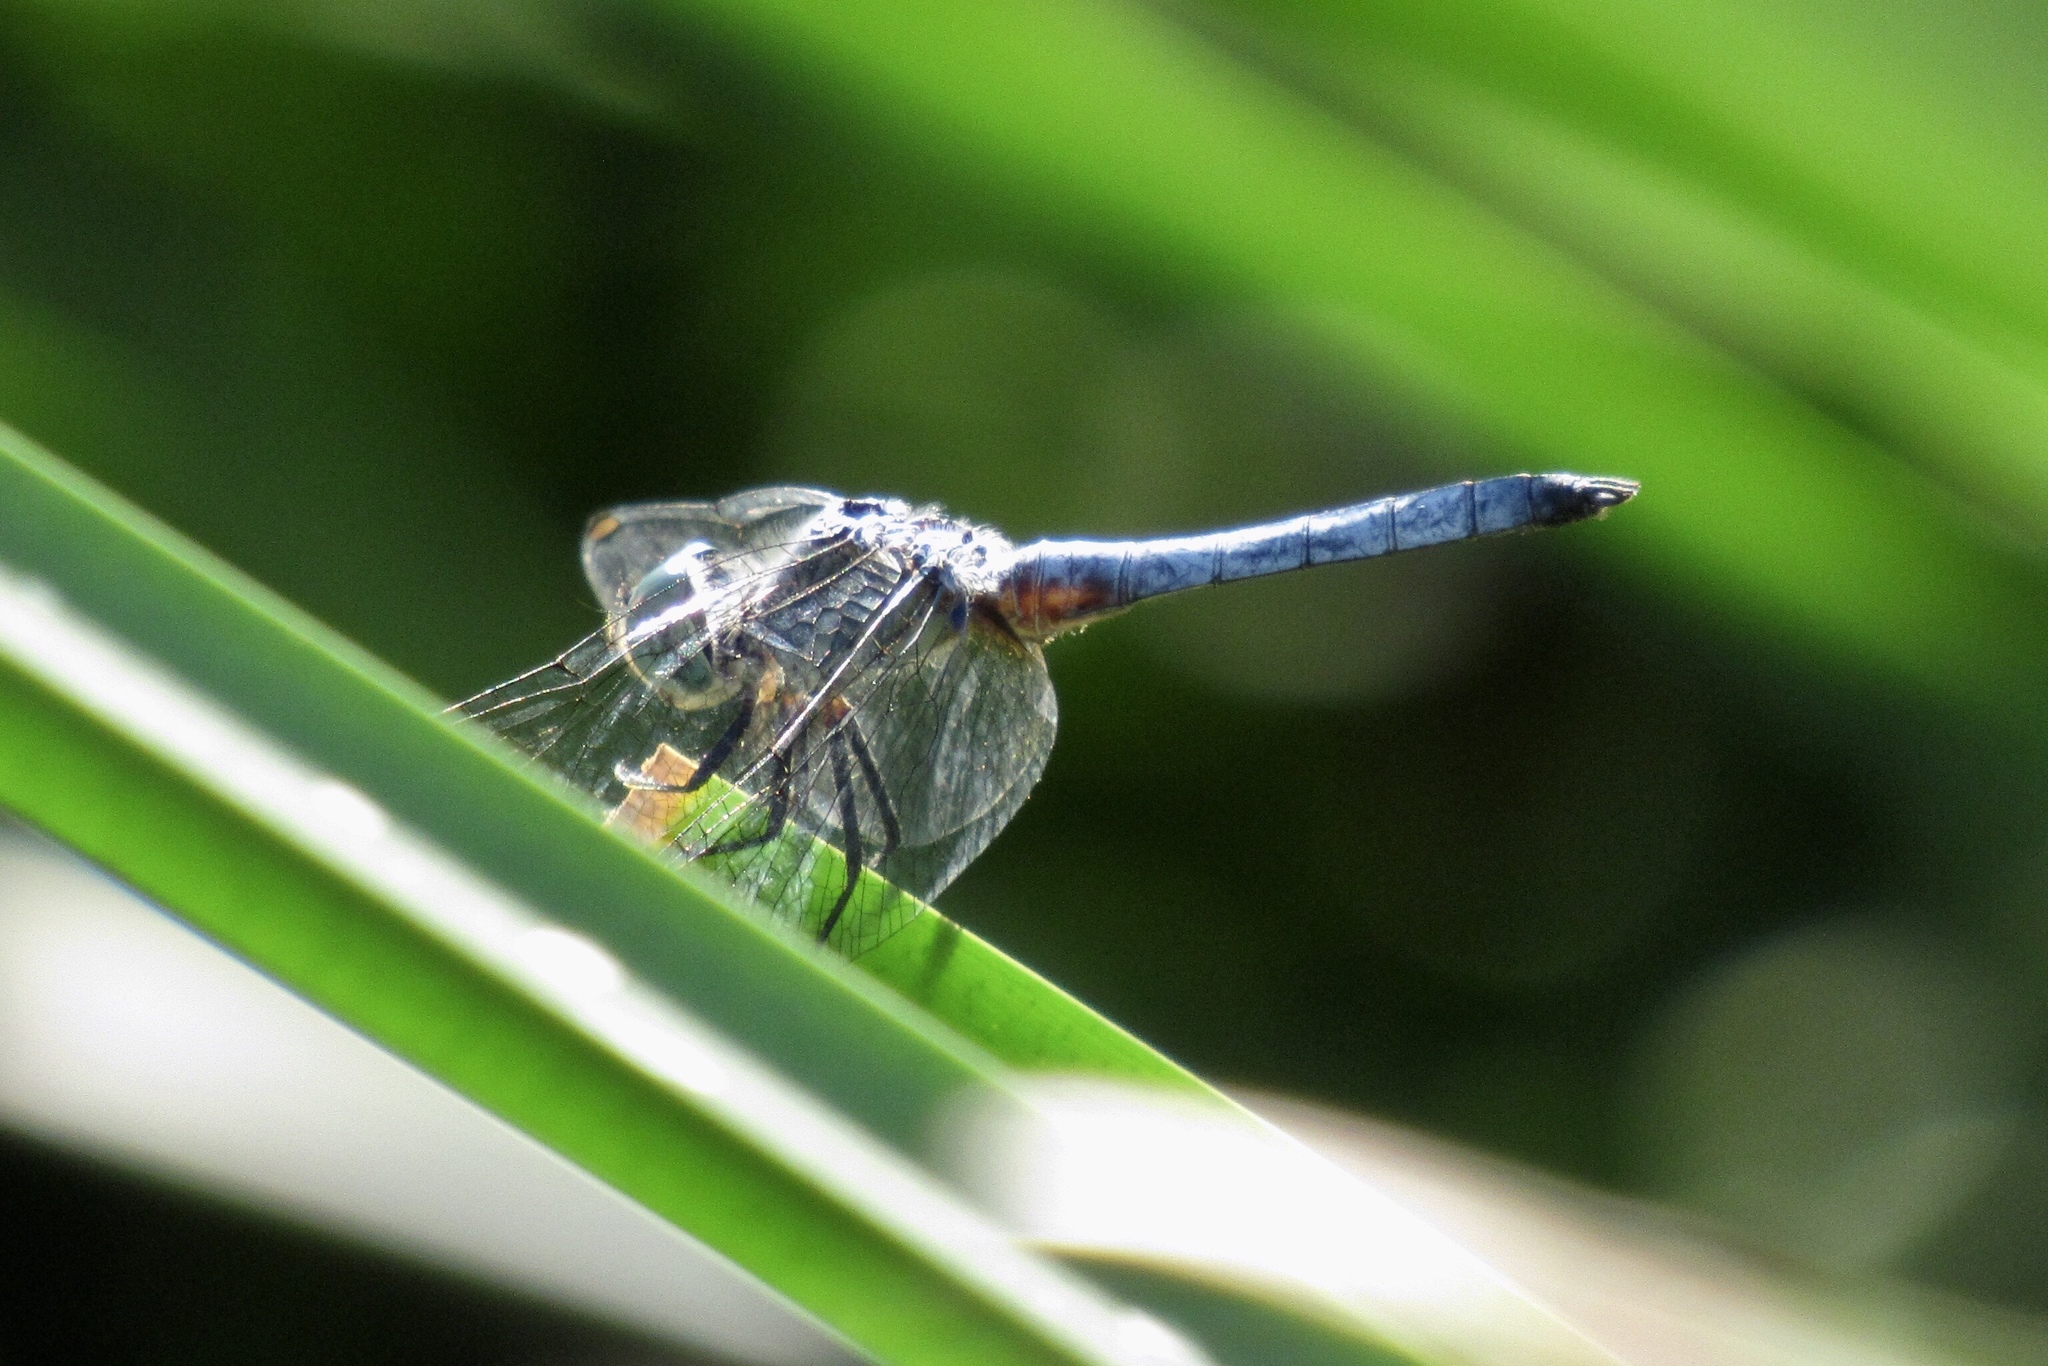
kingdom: Animalia
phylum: Arthropoda
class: Insecta
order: Odonata
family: Libellulidae
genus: Pachydiplax
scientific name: Pachydiplax longipennis
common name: Blue dasher
